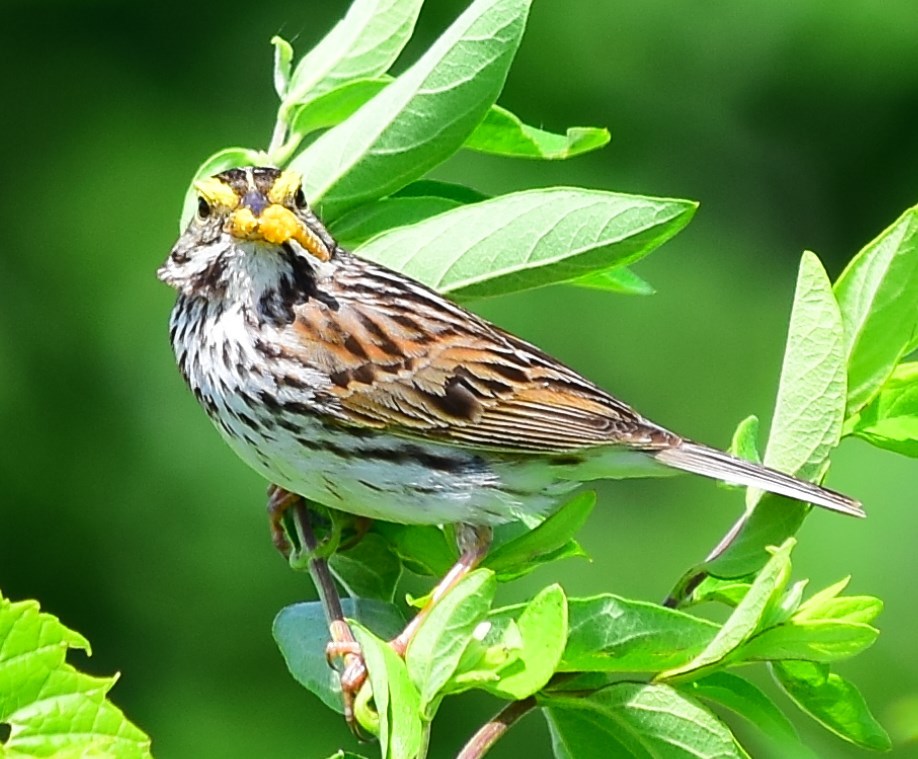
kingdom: Animalia
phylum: Chordata
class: Aves
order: Passeriformes
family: Passerellidae
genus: Passerculus
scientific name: Passerculus sandwichensis
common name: Savannah sparrow
